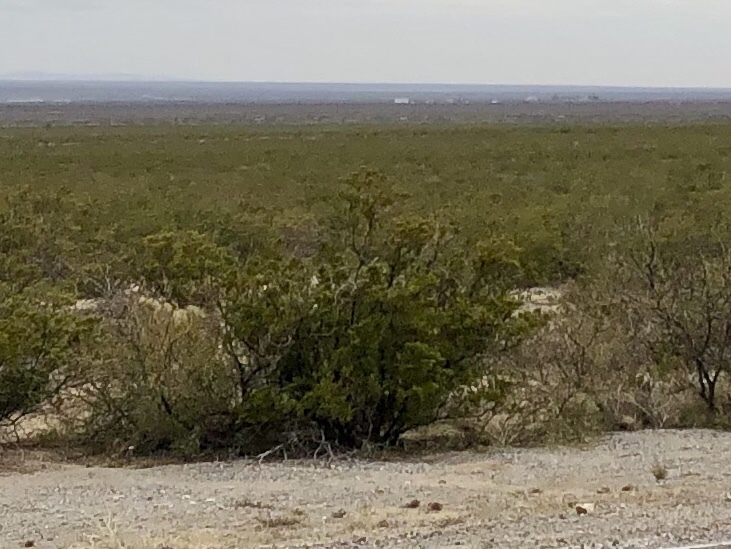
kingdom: Plantae
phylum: Tracheophyta
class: Magnoliopsida
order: Zygophyllales
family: Zygophyllaceae
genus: Larrea
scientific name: Larrea tridentata
